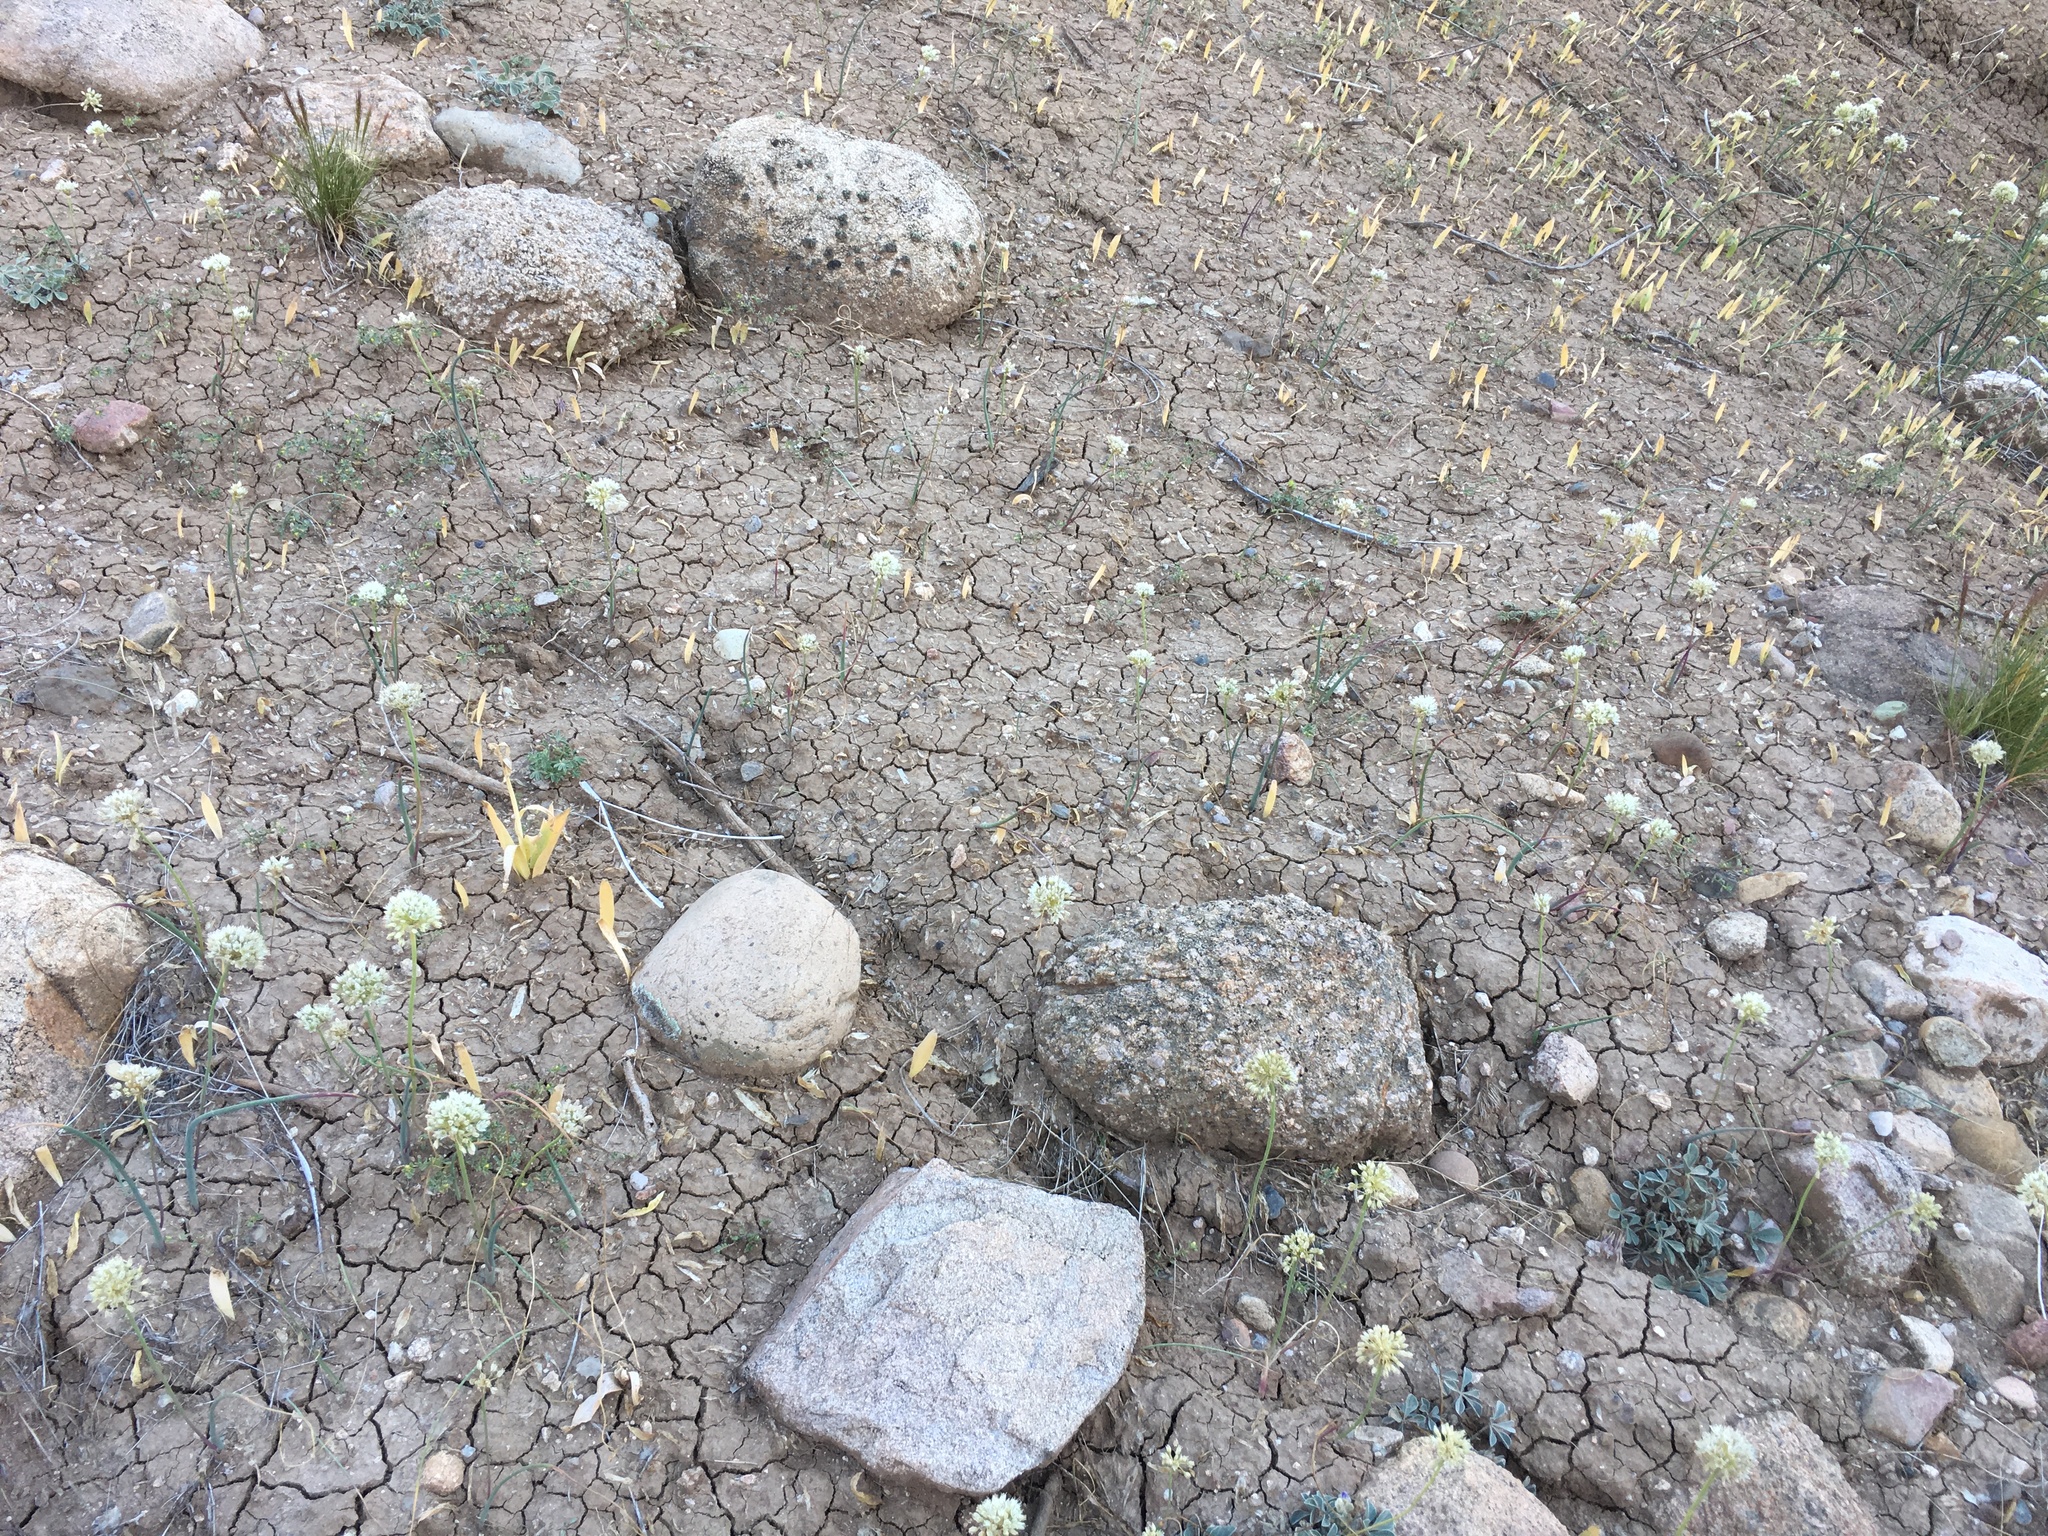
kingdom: Plantae
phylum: Tracheophyta
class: Liliopsida
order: Asparagales
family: Amaryllidaceae
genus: Allium
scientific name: Allium howellii
